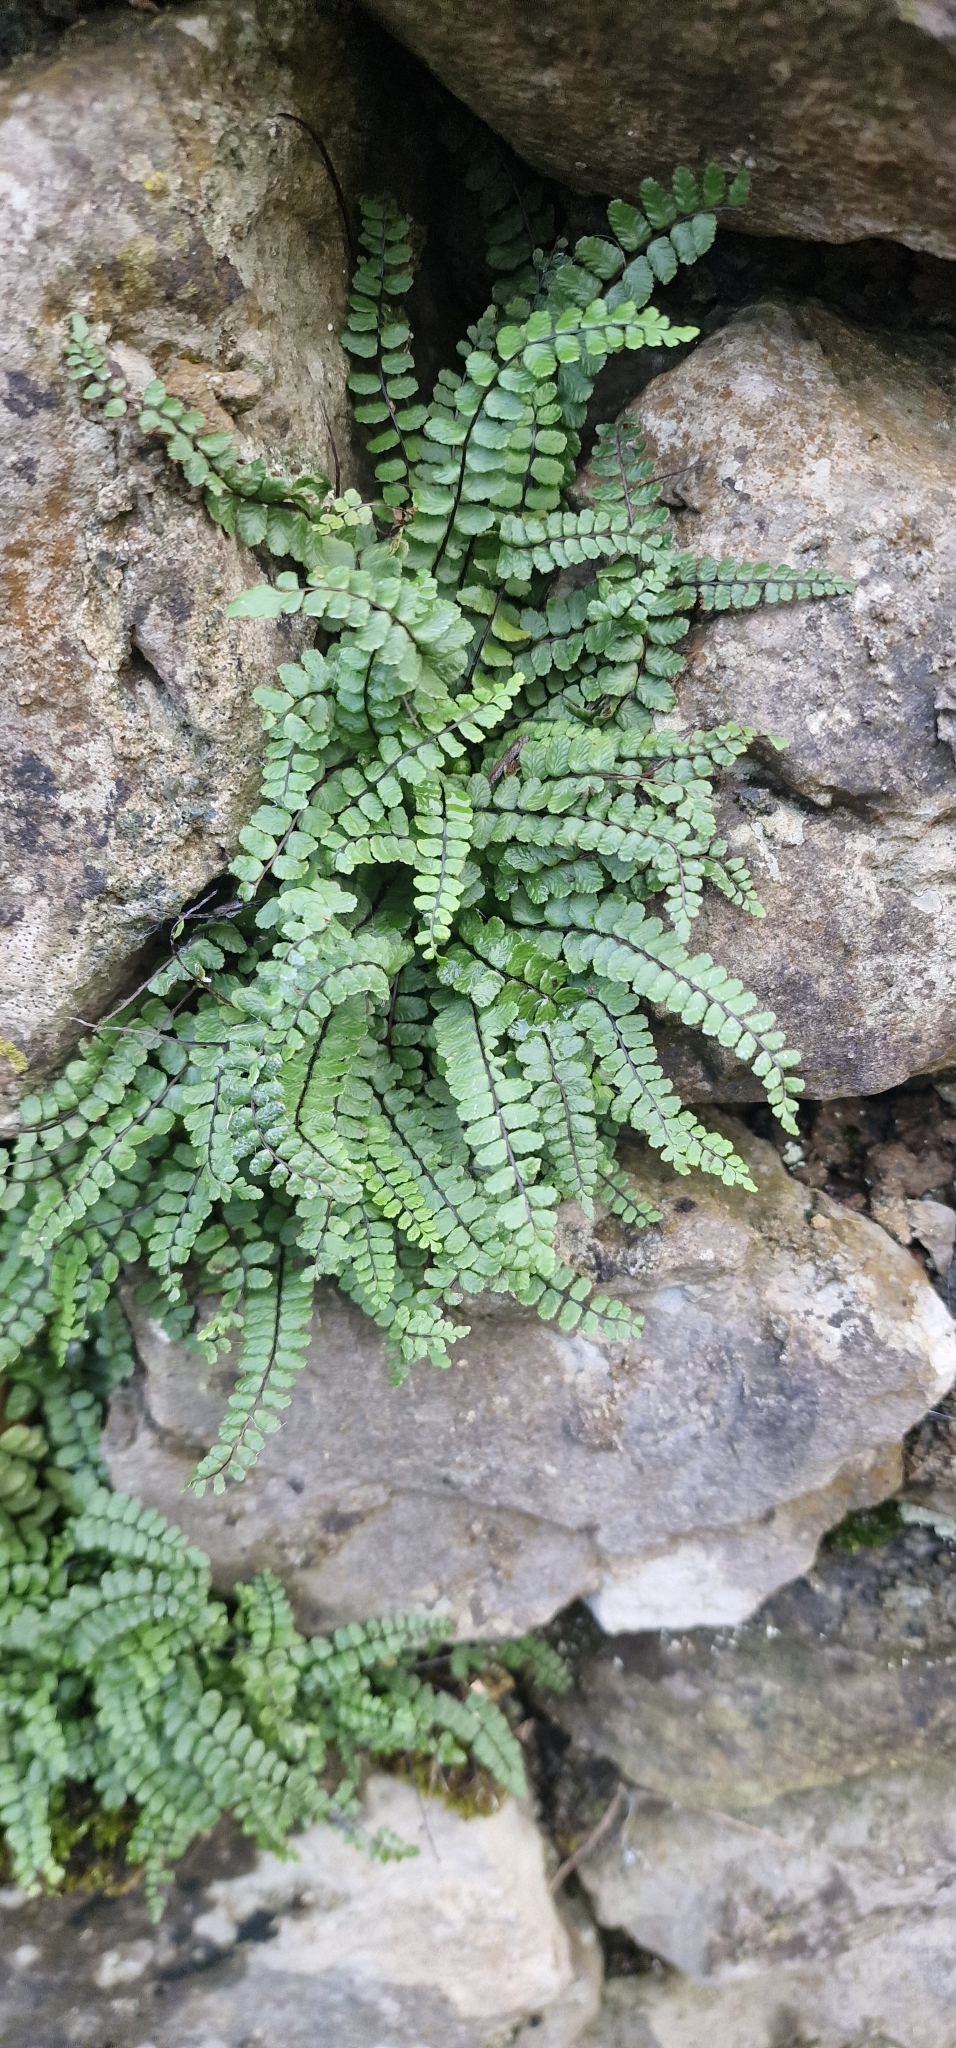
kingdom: Plantae
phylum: Tracheophyta
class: Polypodiopsida
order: Polypodiales
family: Aspleniaceae
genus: Asplenium
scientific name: Asplenium trichomanes
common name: Maidenhair spleenwort
